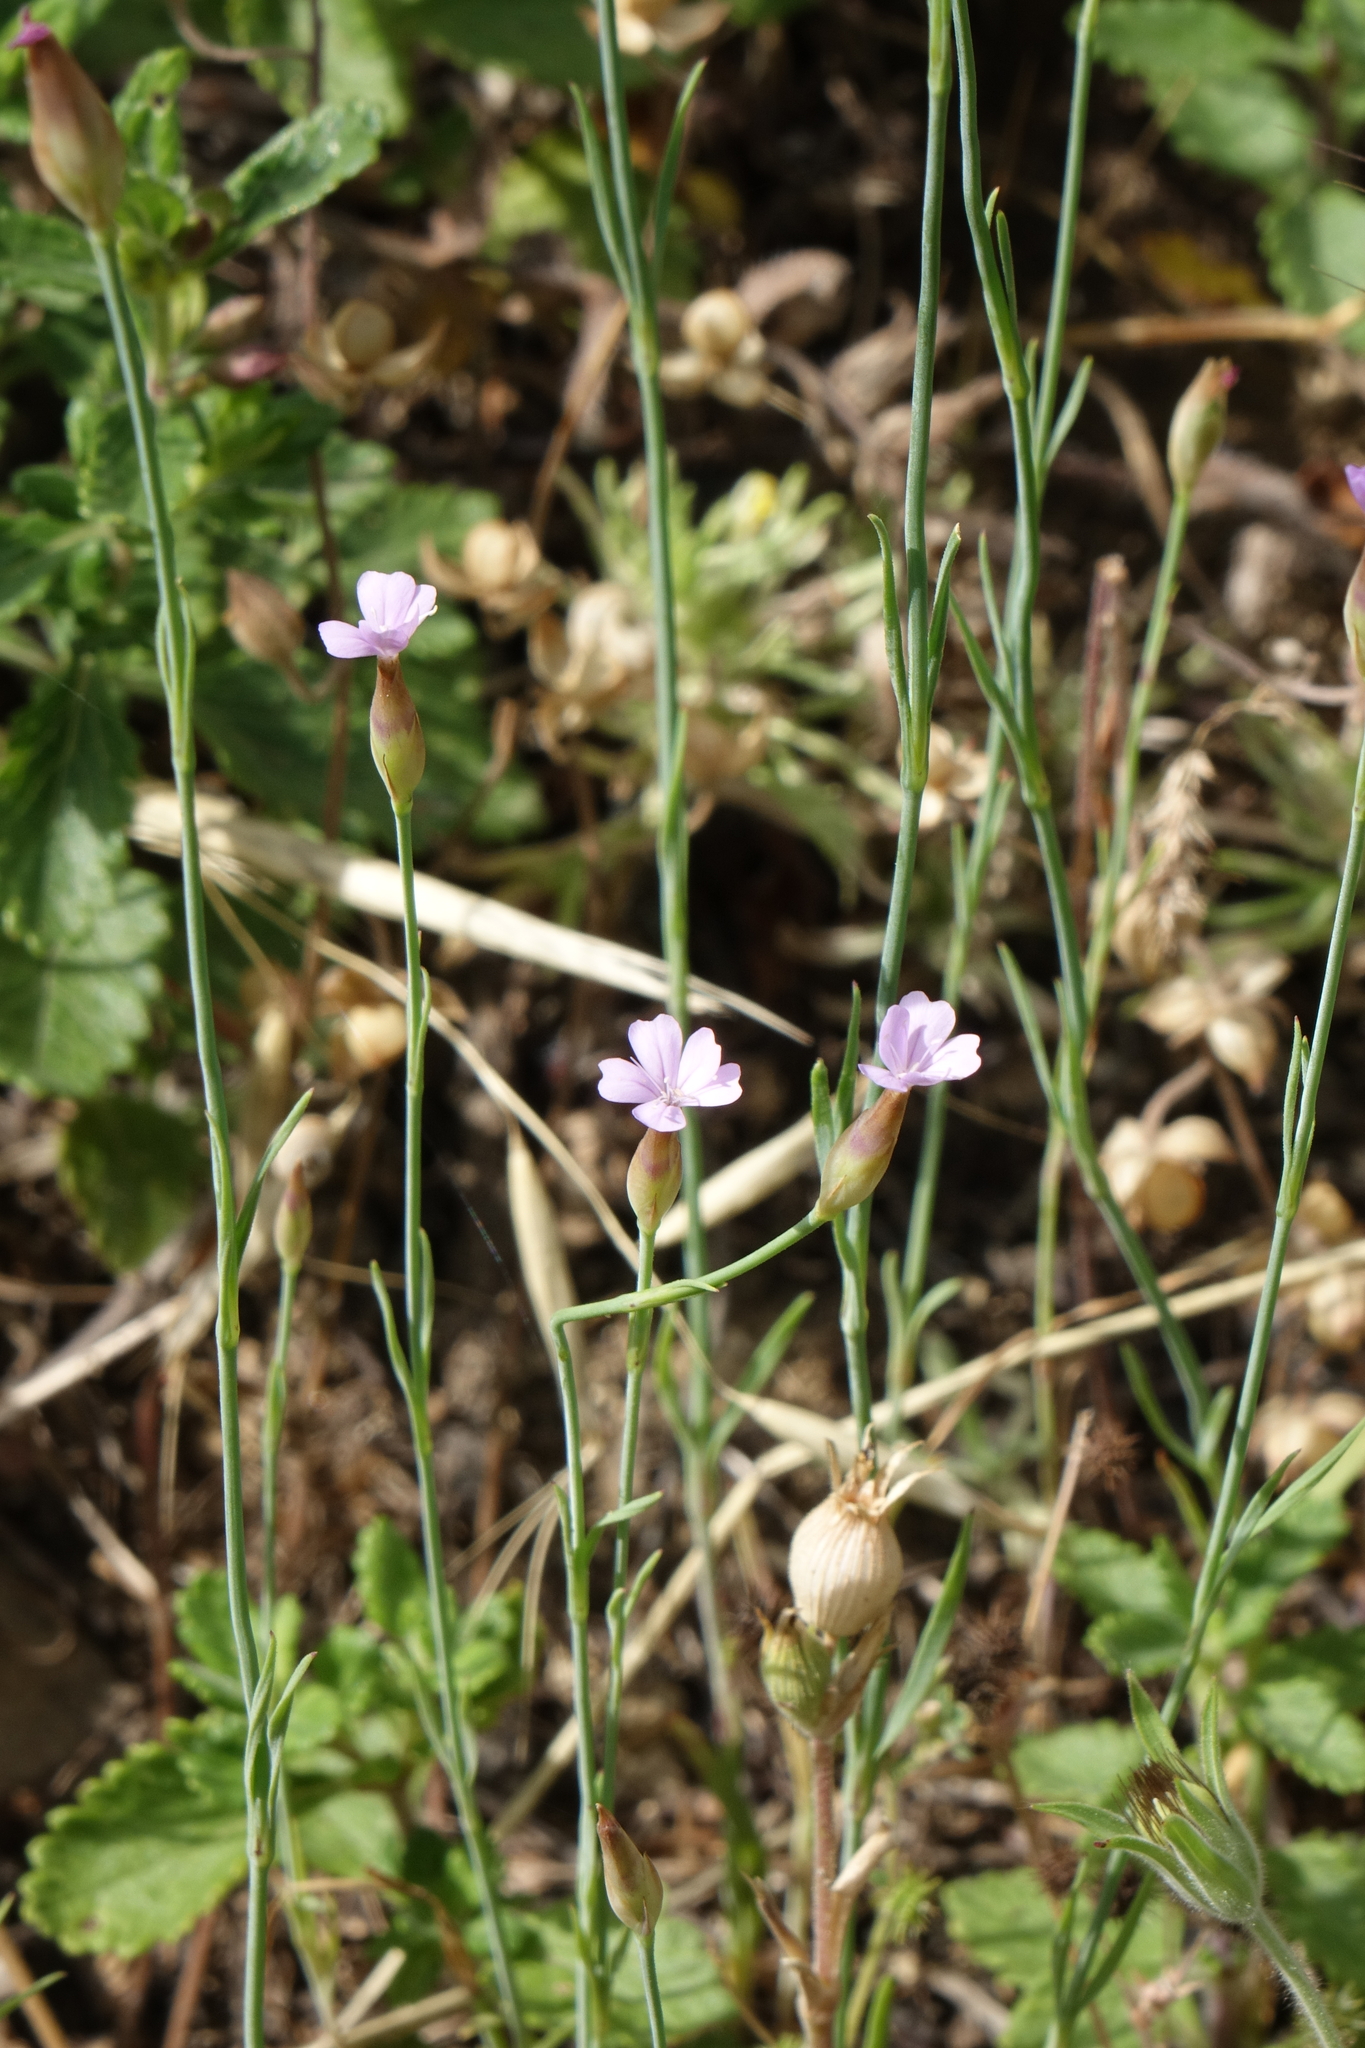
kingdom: Plantae
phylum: Tracheophyta
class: Magnoliopsida
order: Caryophyllales
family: Caryophyllaceae
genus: Petrorhagia
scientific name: Petrorhagia prolifera
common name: Proliferous pink
